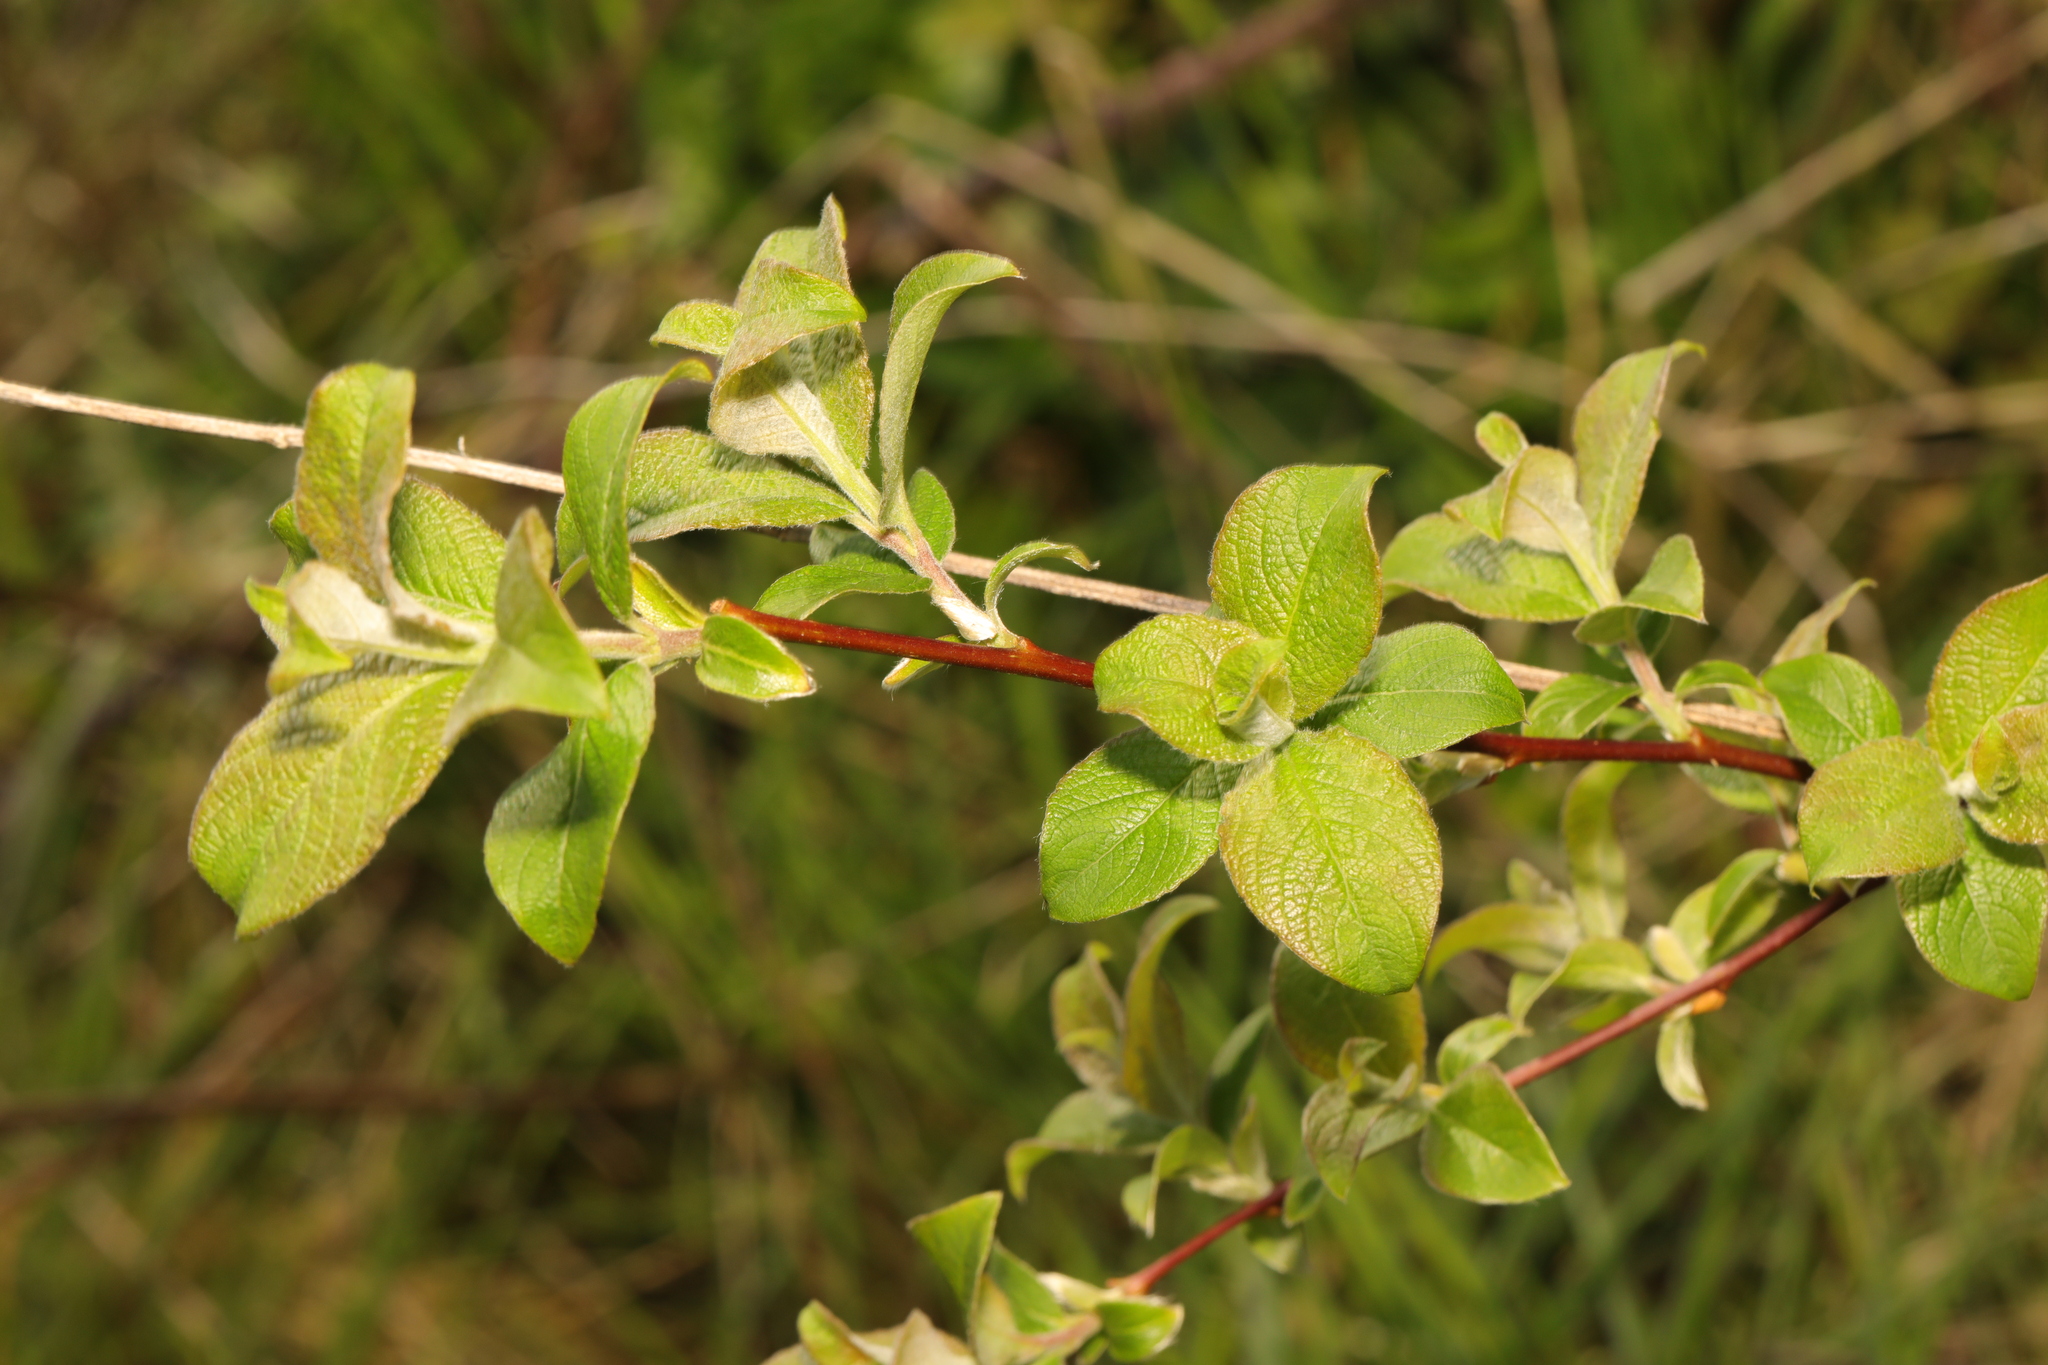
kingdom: Plantae
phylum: Tracheophyta
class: Magnoliopsida
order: Malpighiales
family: Salicaceae
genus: Salix
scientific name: Salix caprea
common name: Goat willow
